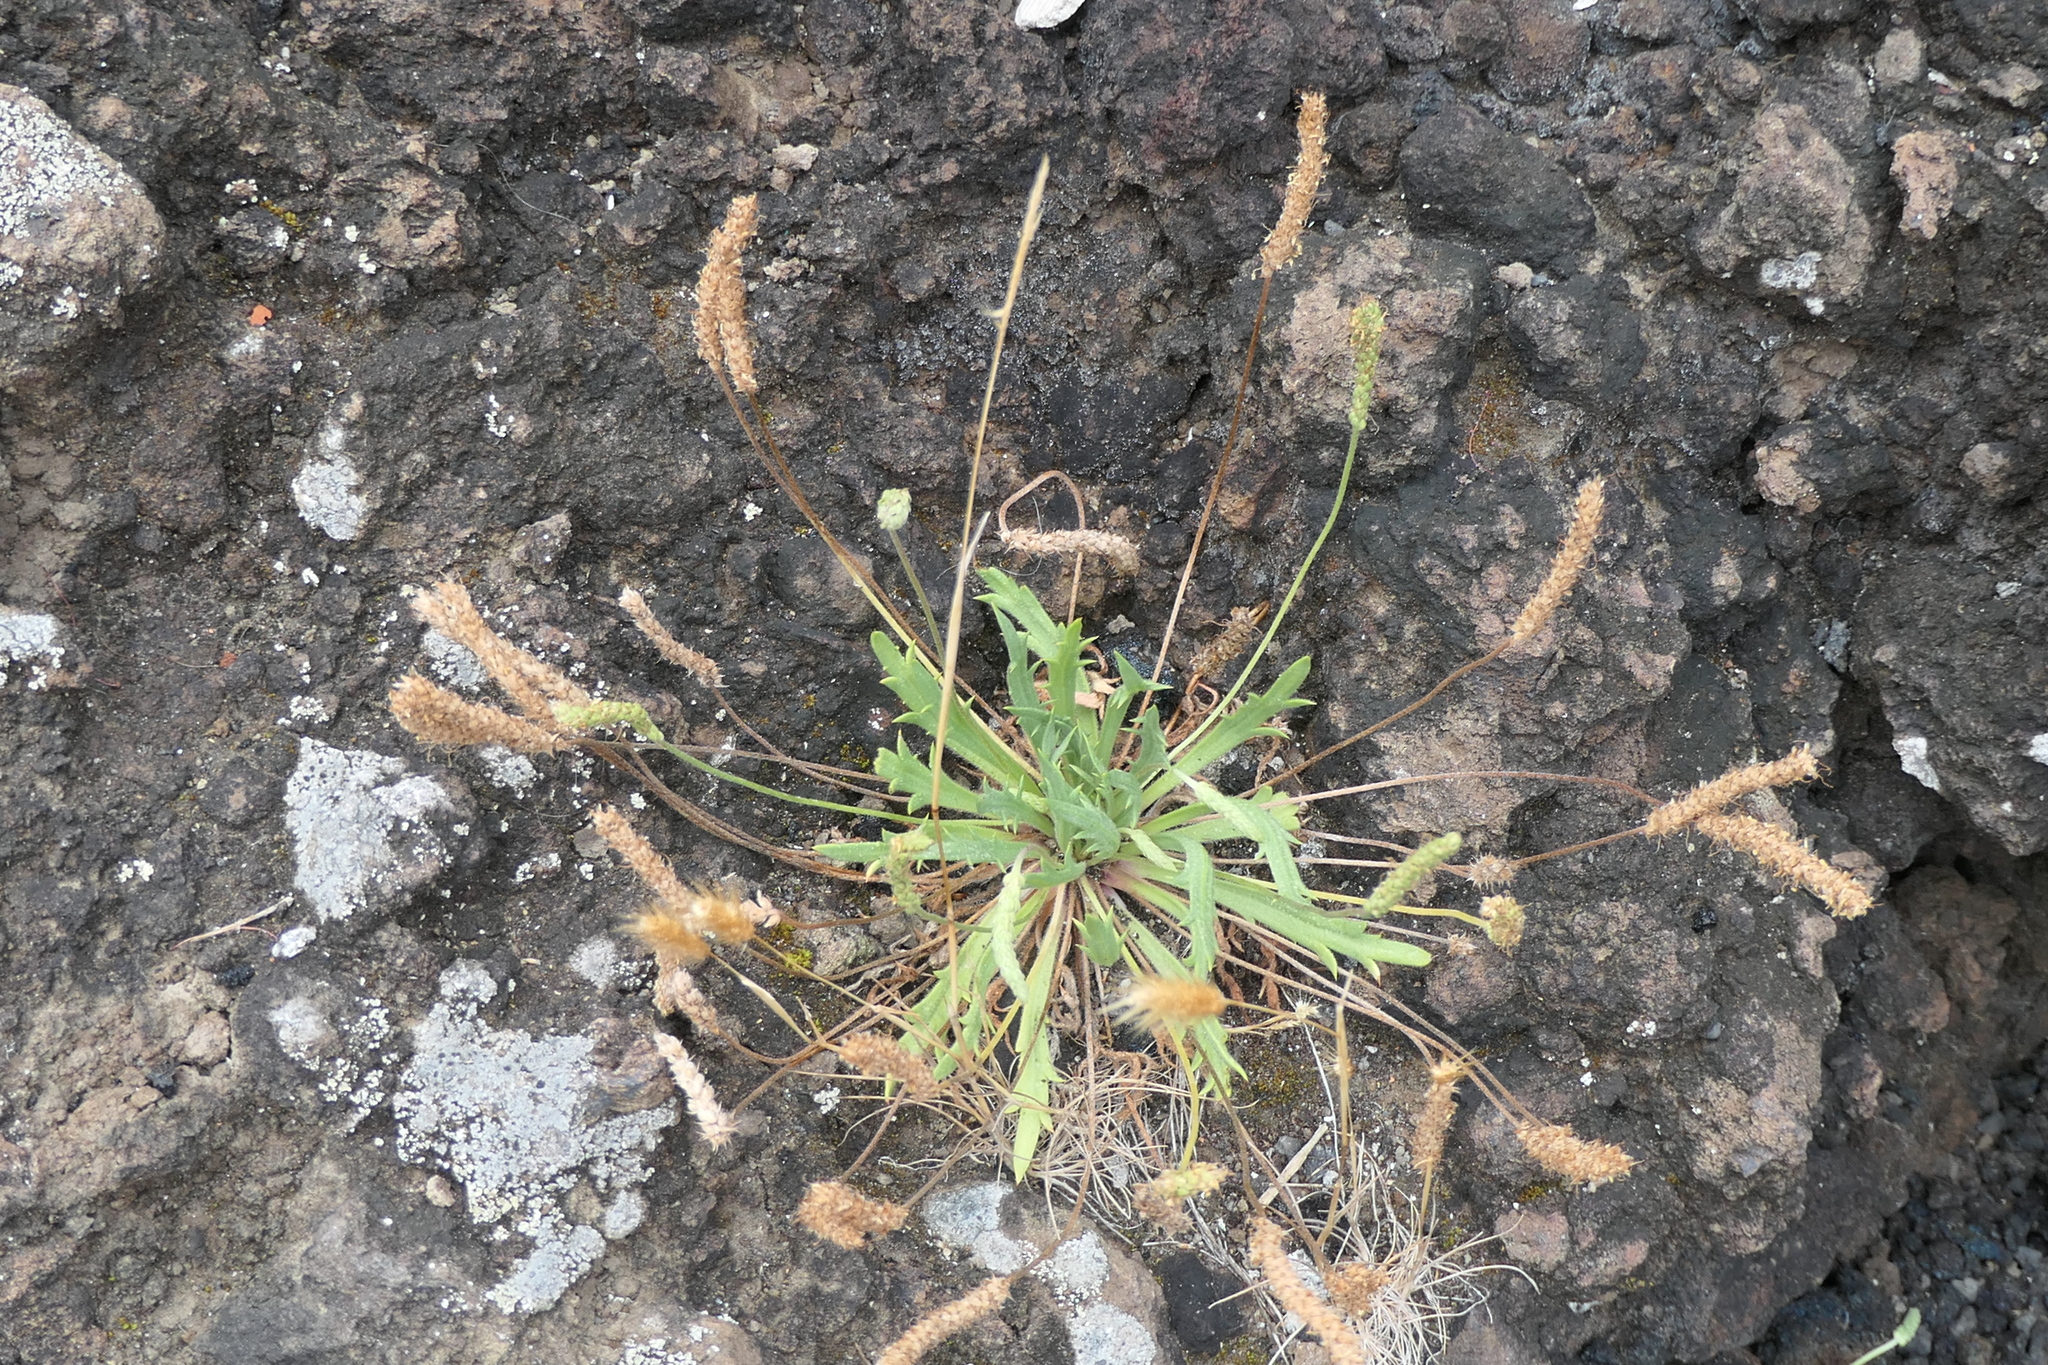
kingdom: Plantae
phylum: Tracheophyta
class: Magnoliopsida
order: Lamiales
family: Plantaginaceae
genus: Plantago
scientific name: Plantago coronopus
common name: Buck's-horn plantain
